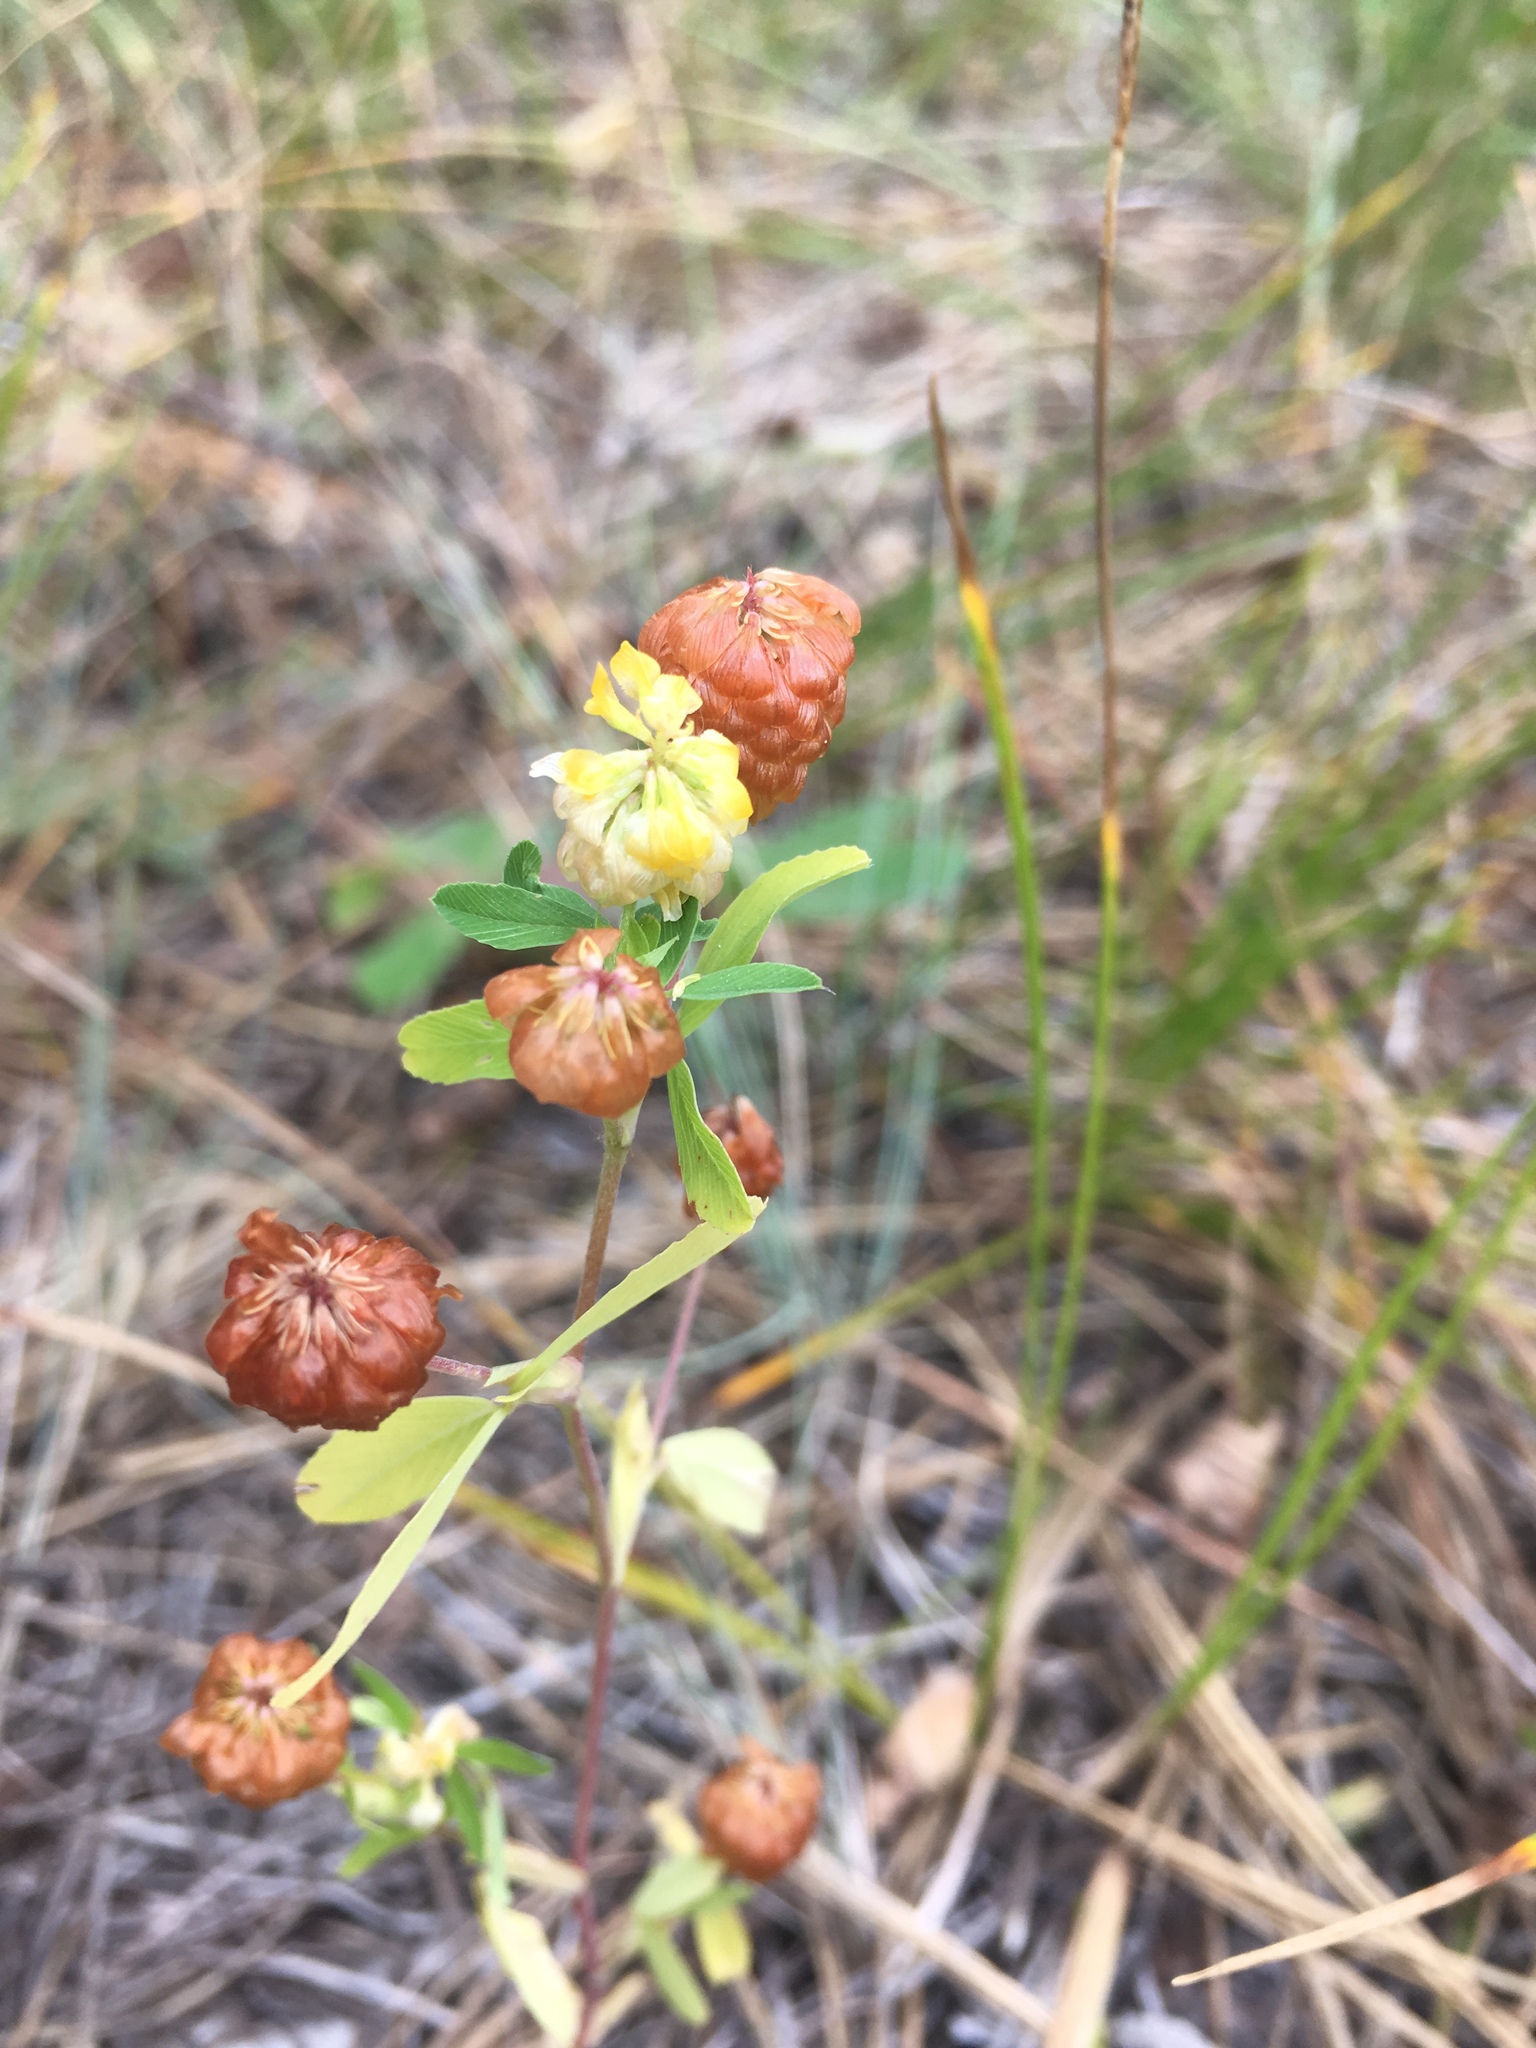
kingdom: Plantae
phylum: Tracheophyta
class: Magnoliopsida
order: Fabales
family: Fabaceae
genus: Trifolium
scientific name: Trifolium aureum
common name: Golden clover
